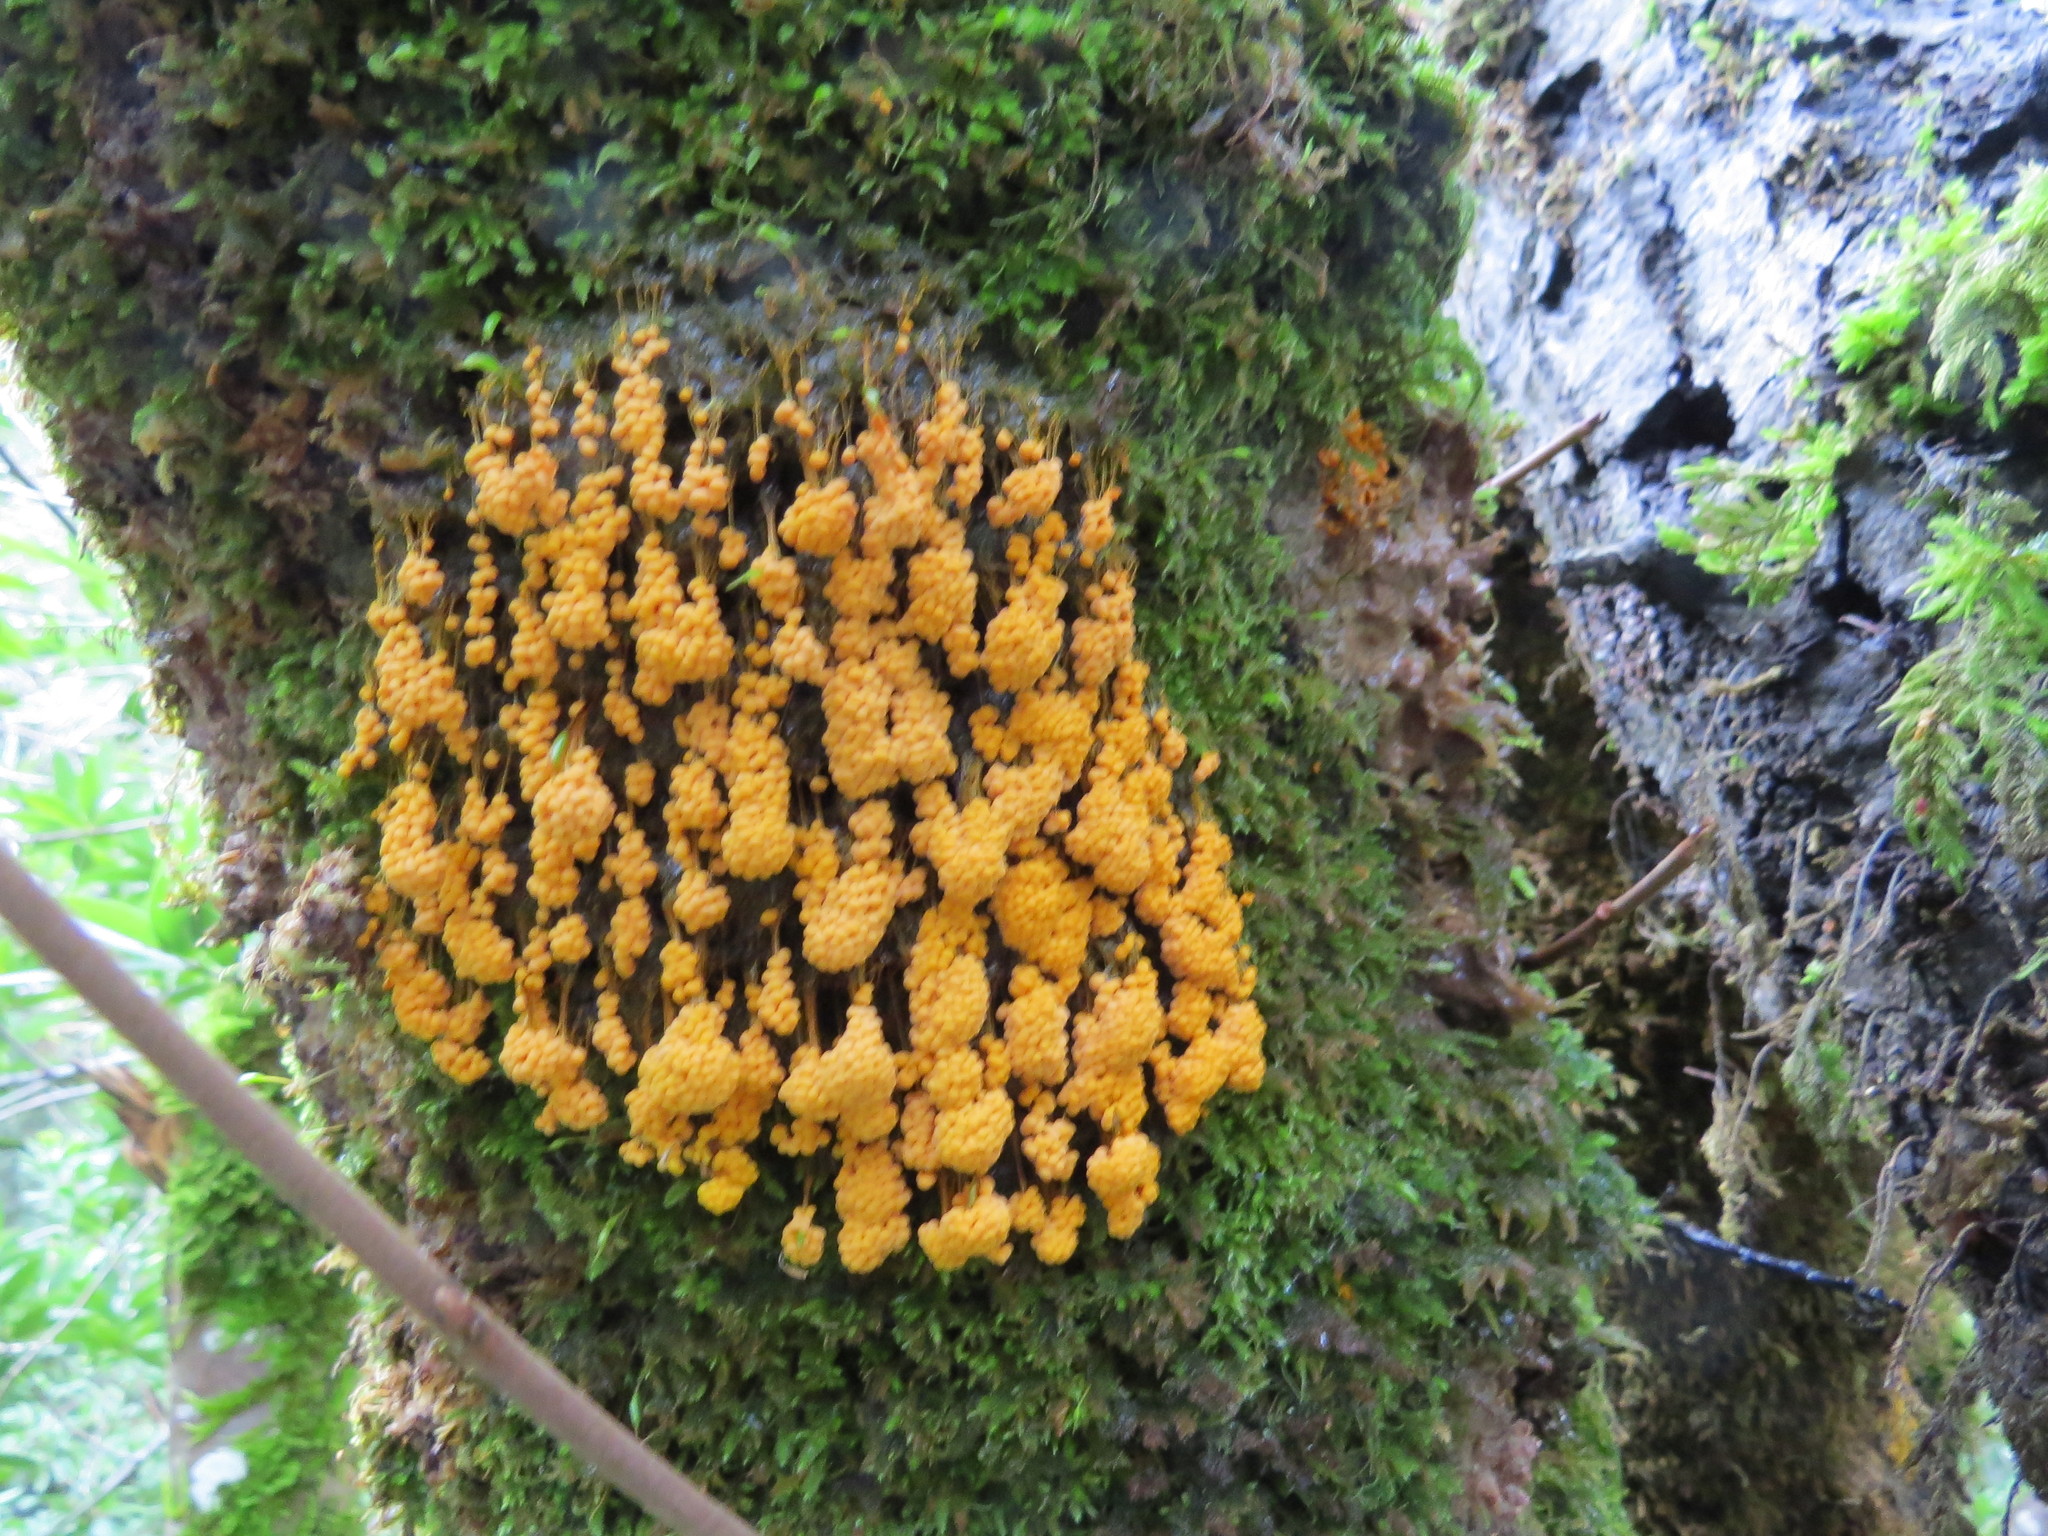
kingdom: Protozoa
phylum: Mycetozoa
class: Myxomycetes
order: Physarales
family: Physaraceae
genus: Badhamia
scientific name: Badhamia utricularis
